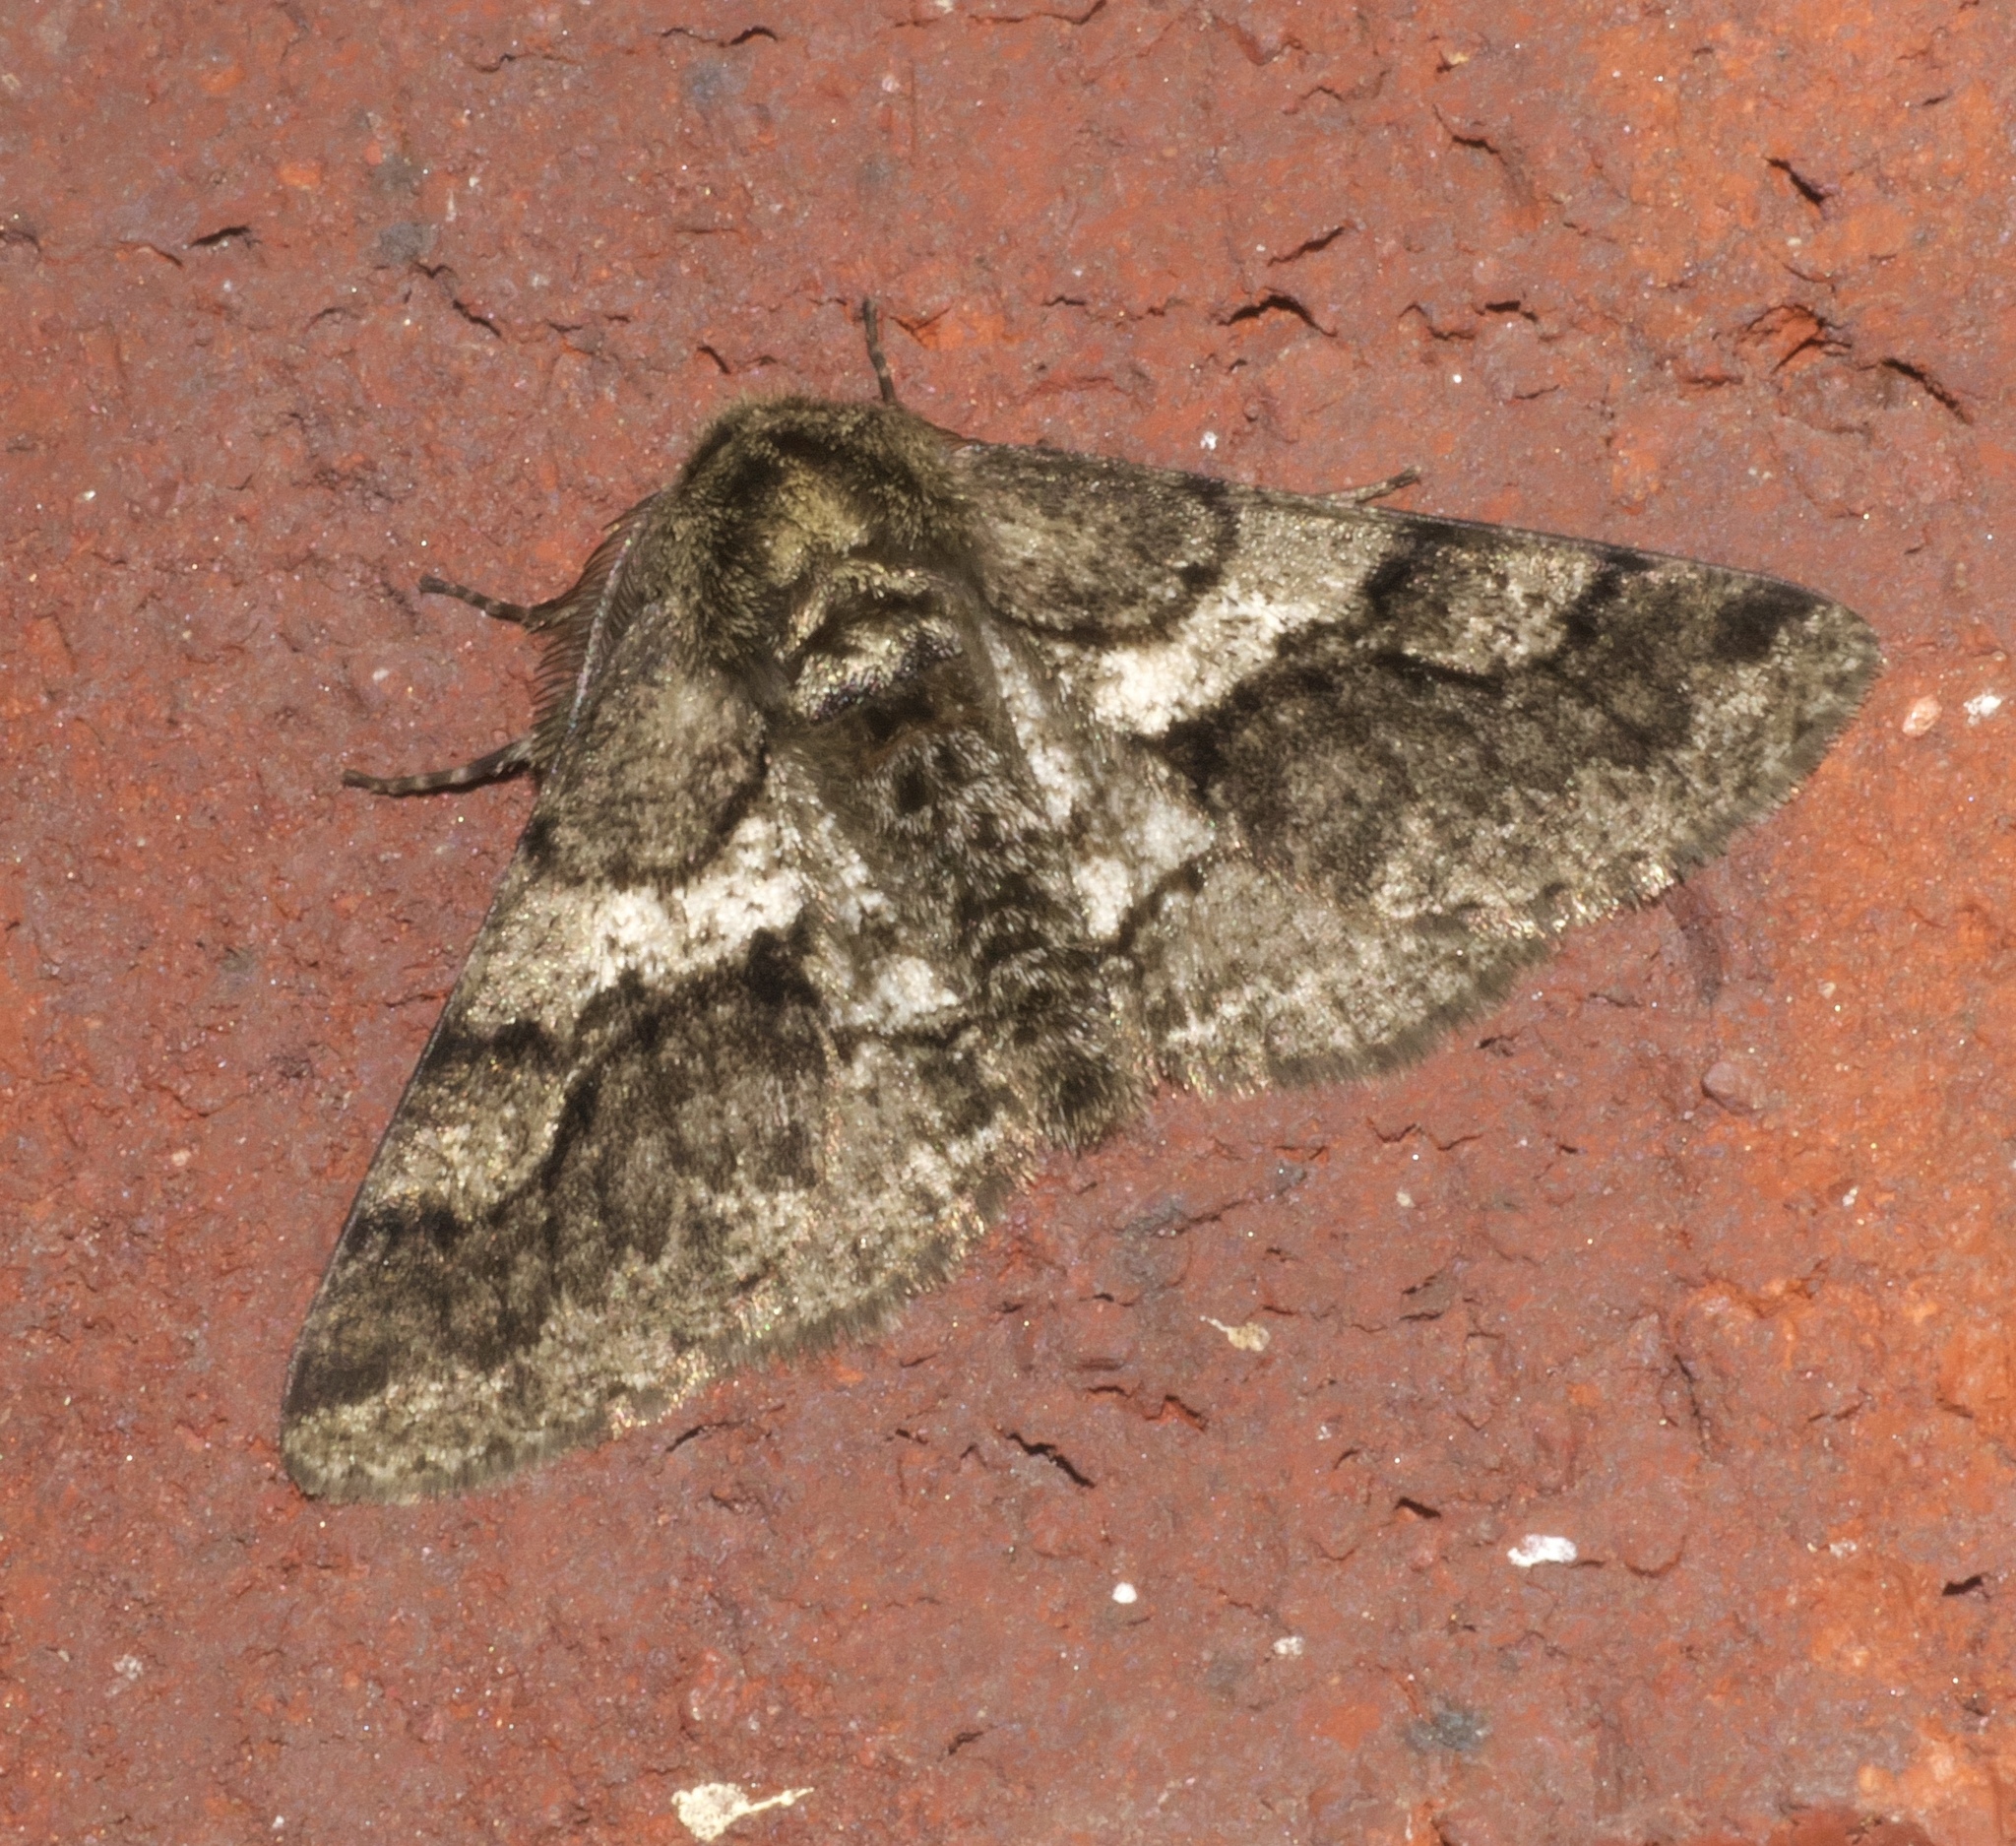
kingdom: Animalia
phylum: Arthropoda
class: Insecta
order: Lepidoptera
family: Geometridae
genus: Lycia
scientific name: Lycia ypsilon
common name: Wooly gray
